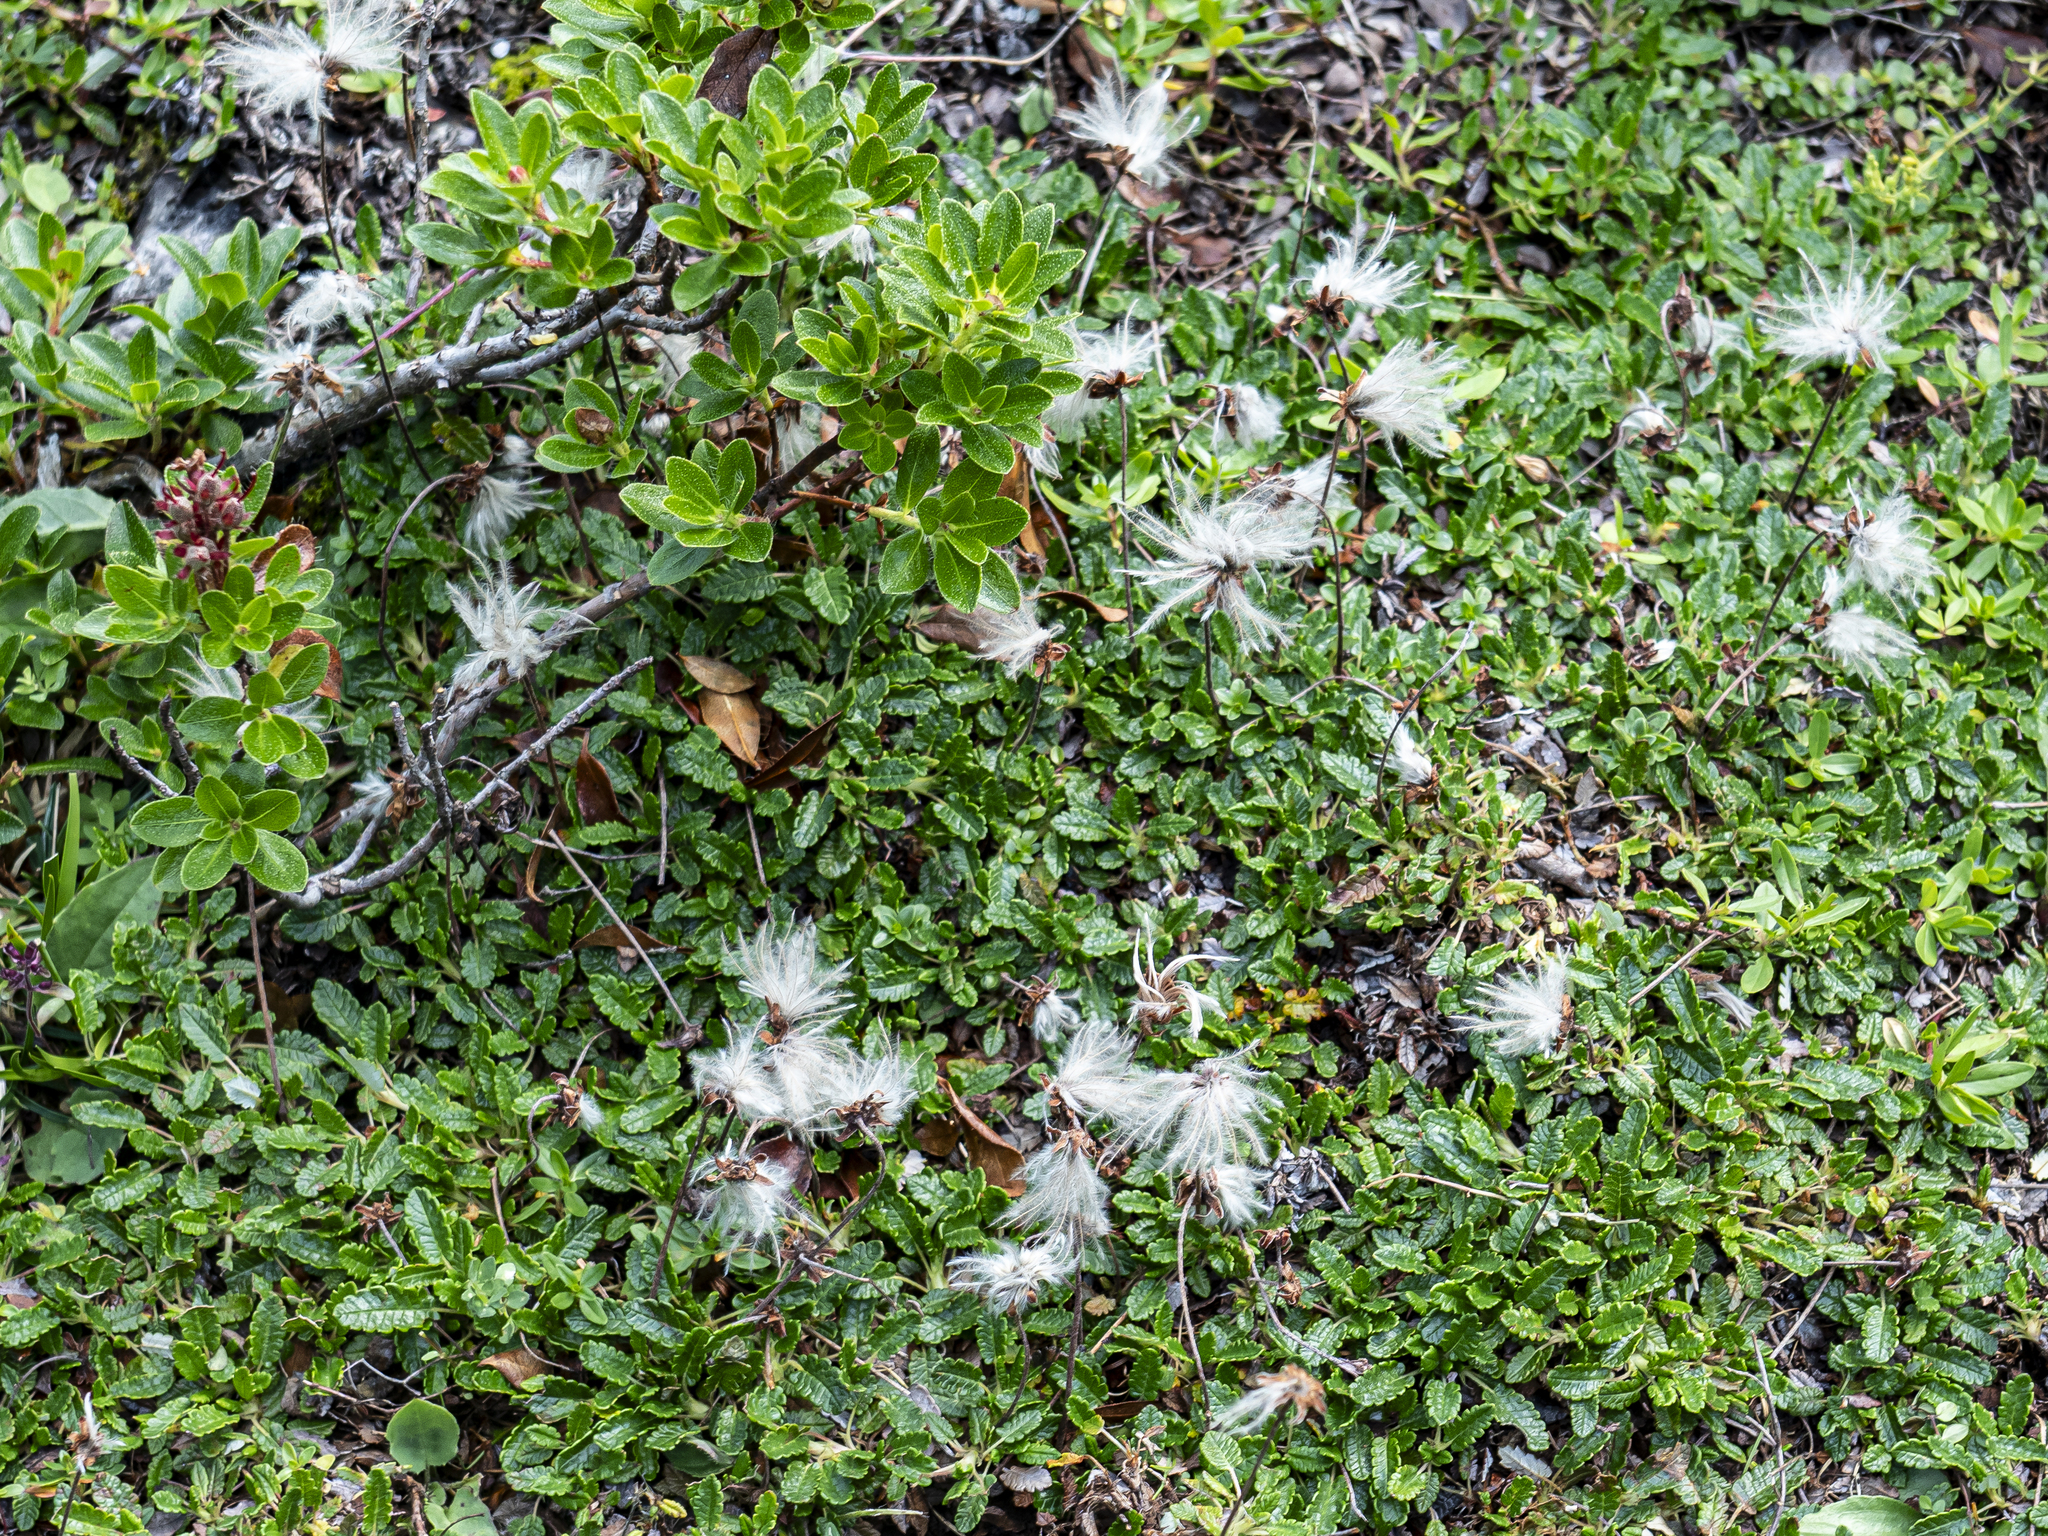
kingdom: Plantae
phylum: Tracheophyta
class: Magnoliopsida
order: Rosales
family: Rosaceae
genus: Dryas
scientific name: Dryas octopetala
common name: Eight-petal mountain-avens
